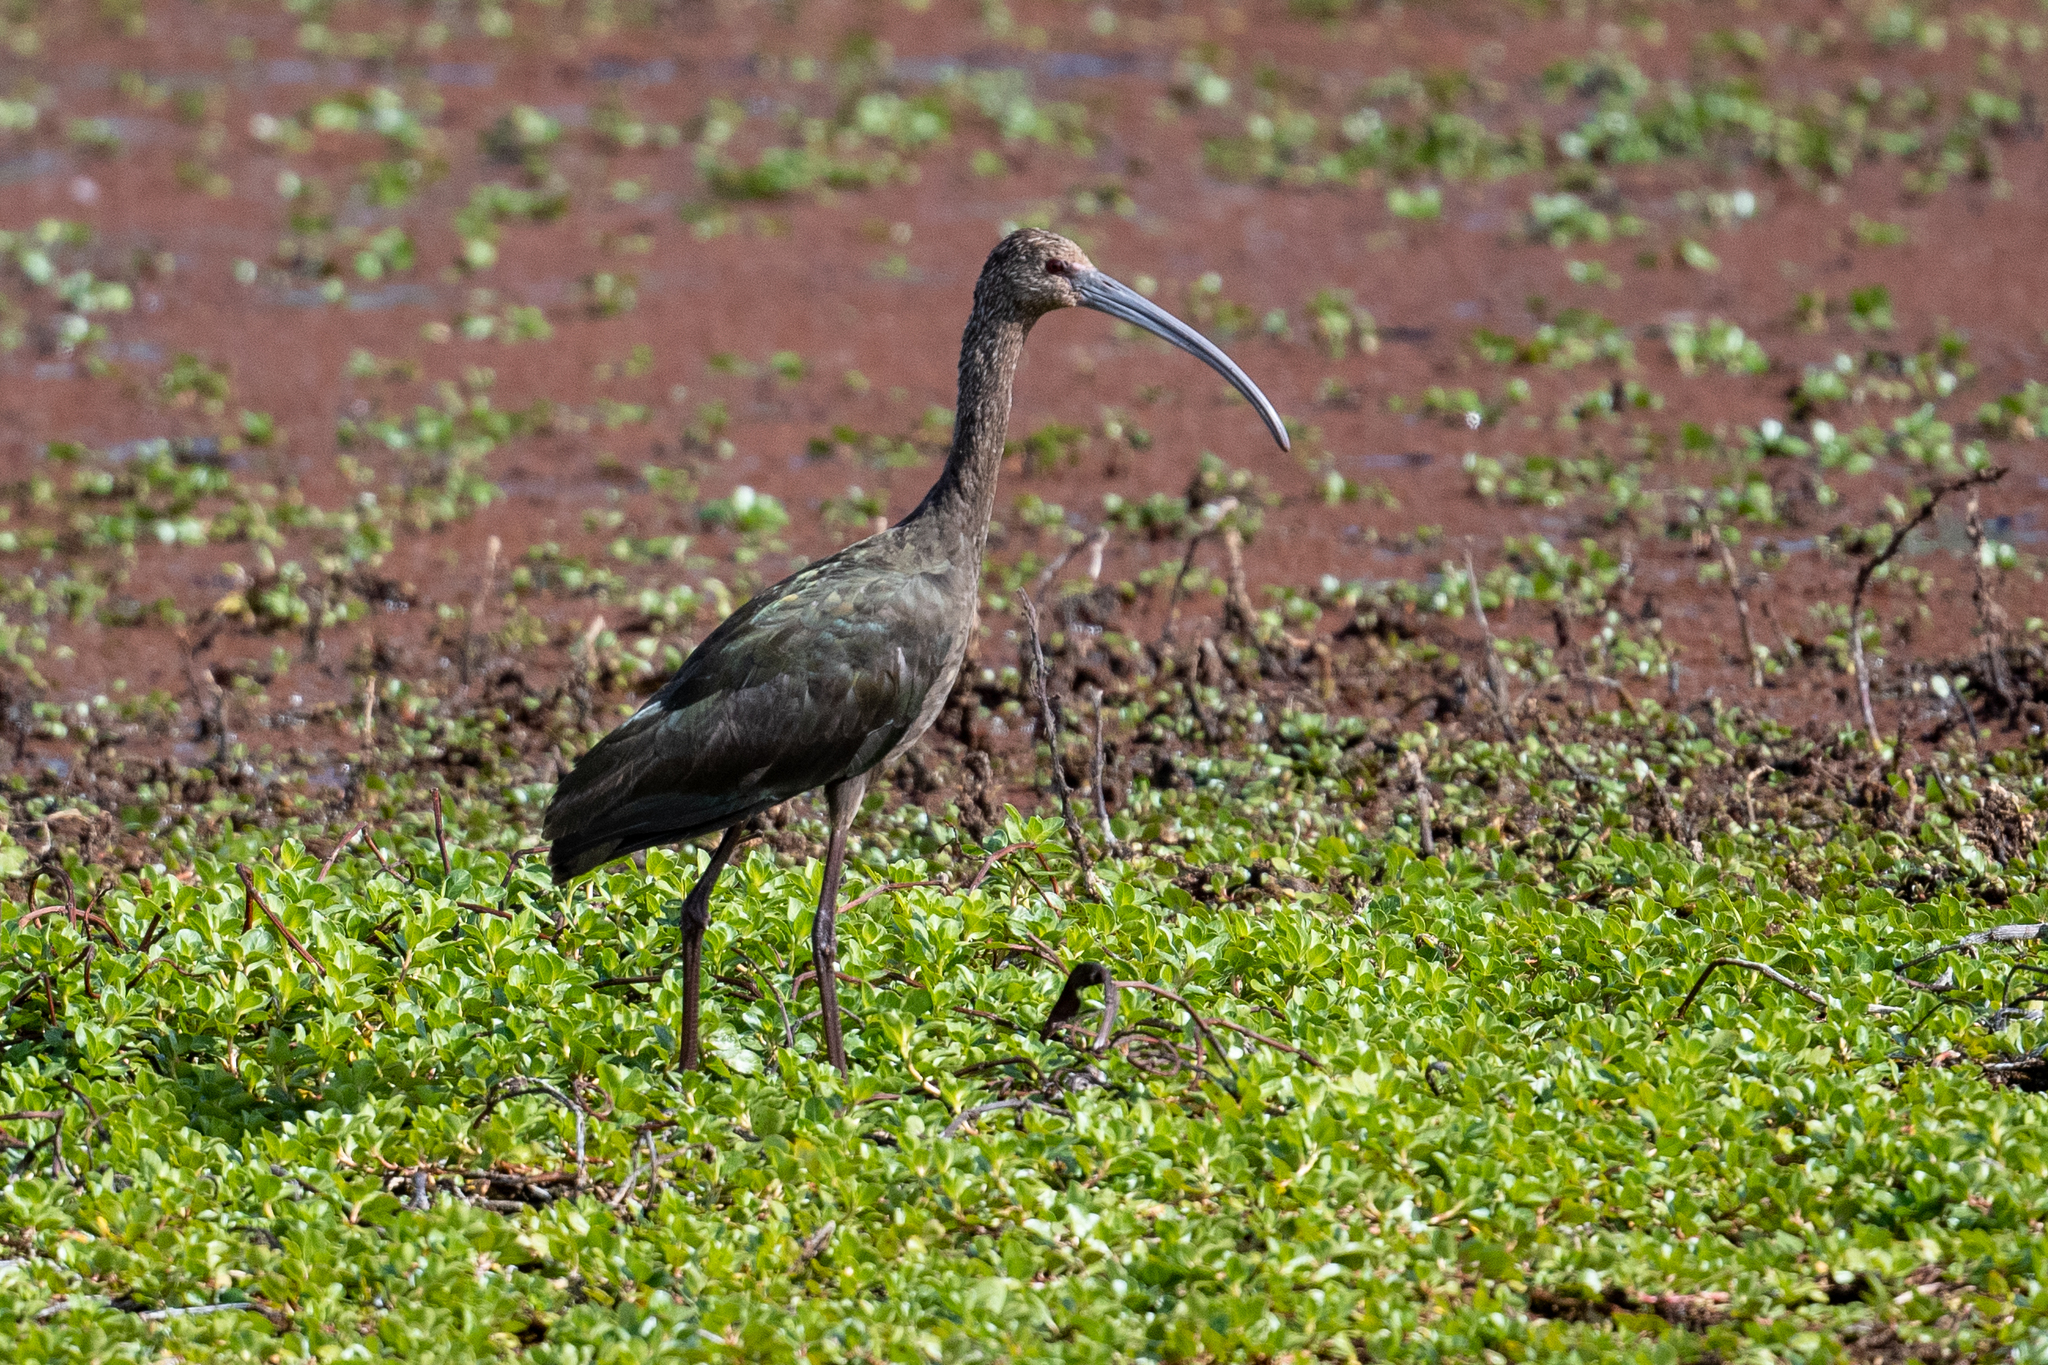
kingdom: Animalia
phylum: Chordata
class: Aves
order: Pelecaniformes
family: Threskiornithidae
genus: Plegadis
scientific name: Plegadis chihi
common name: White-faced ibis
